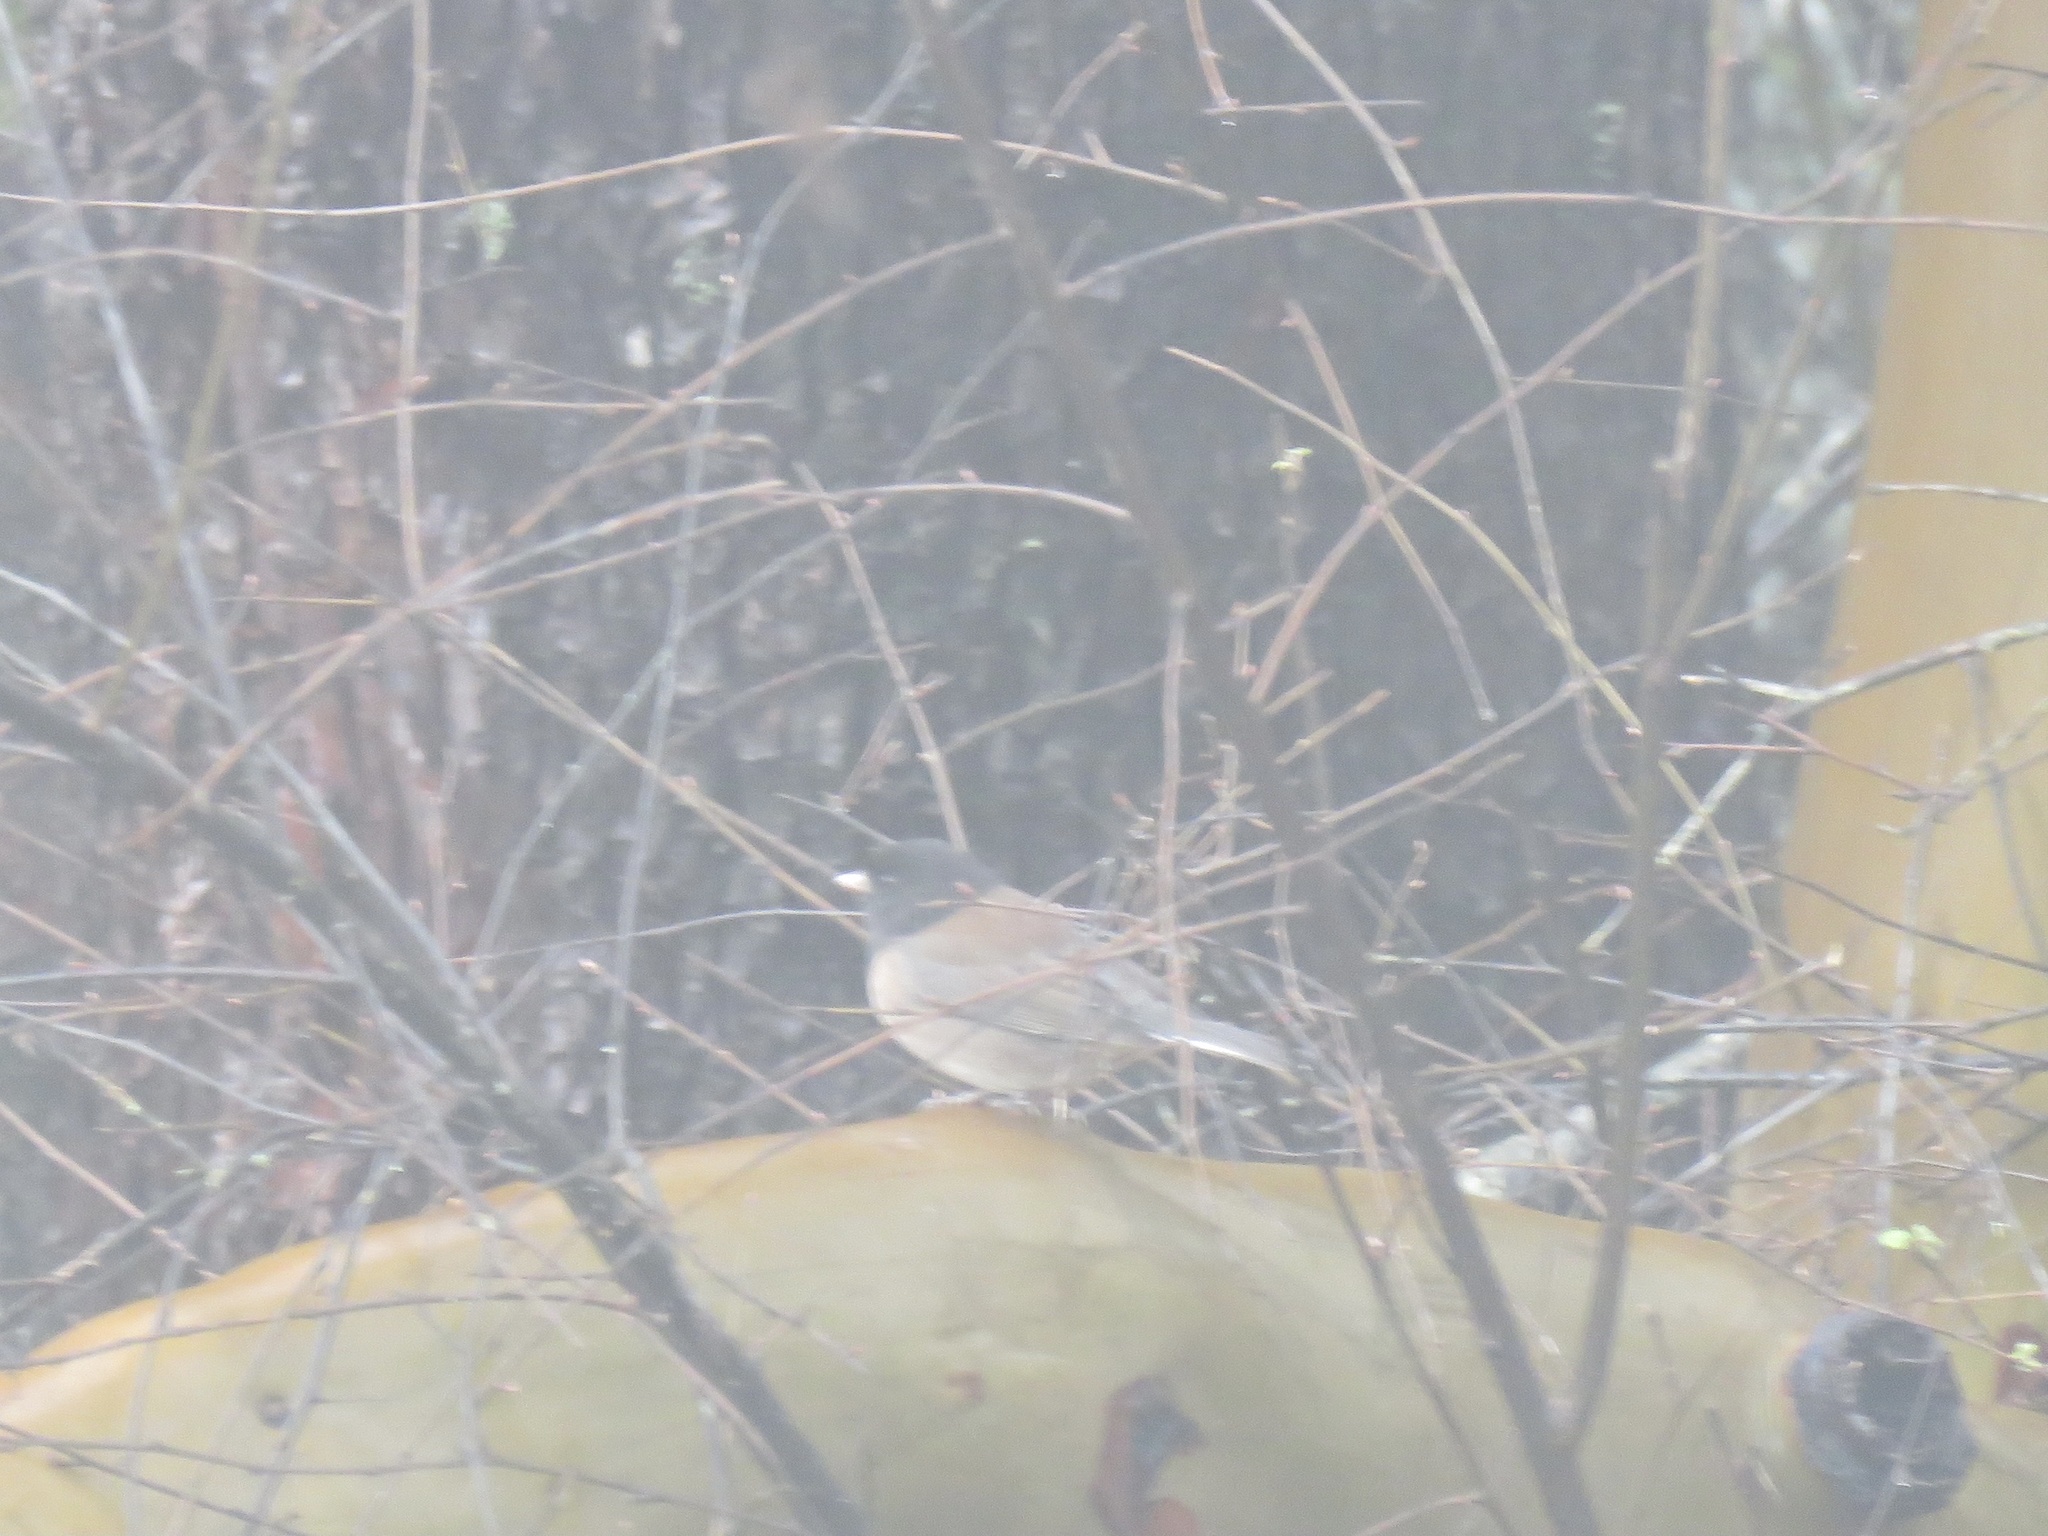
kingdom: Animalia
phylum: Chordata
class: Aves
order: Passeriformes
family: Passerellidae
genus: Junco
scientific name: Junco hyemalis
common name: Dark-eyed junco
